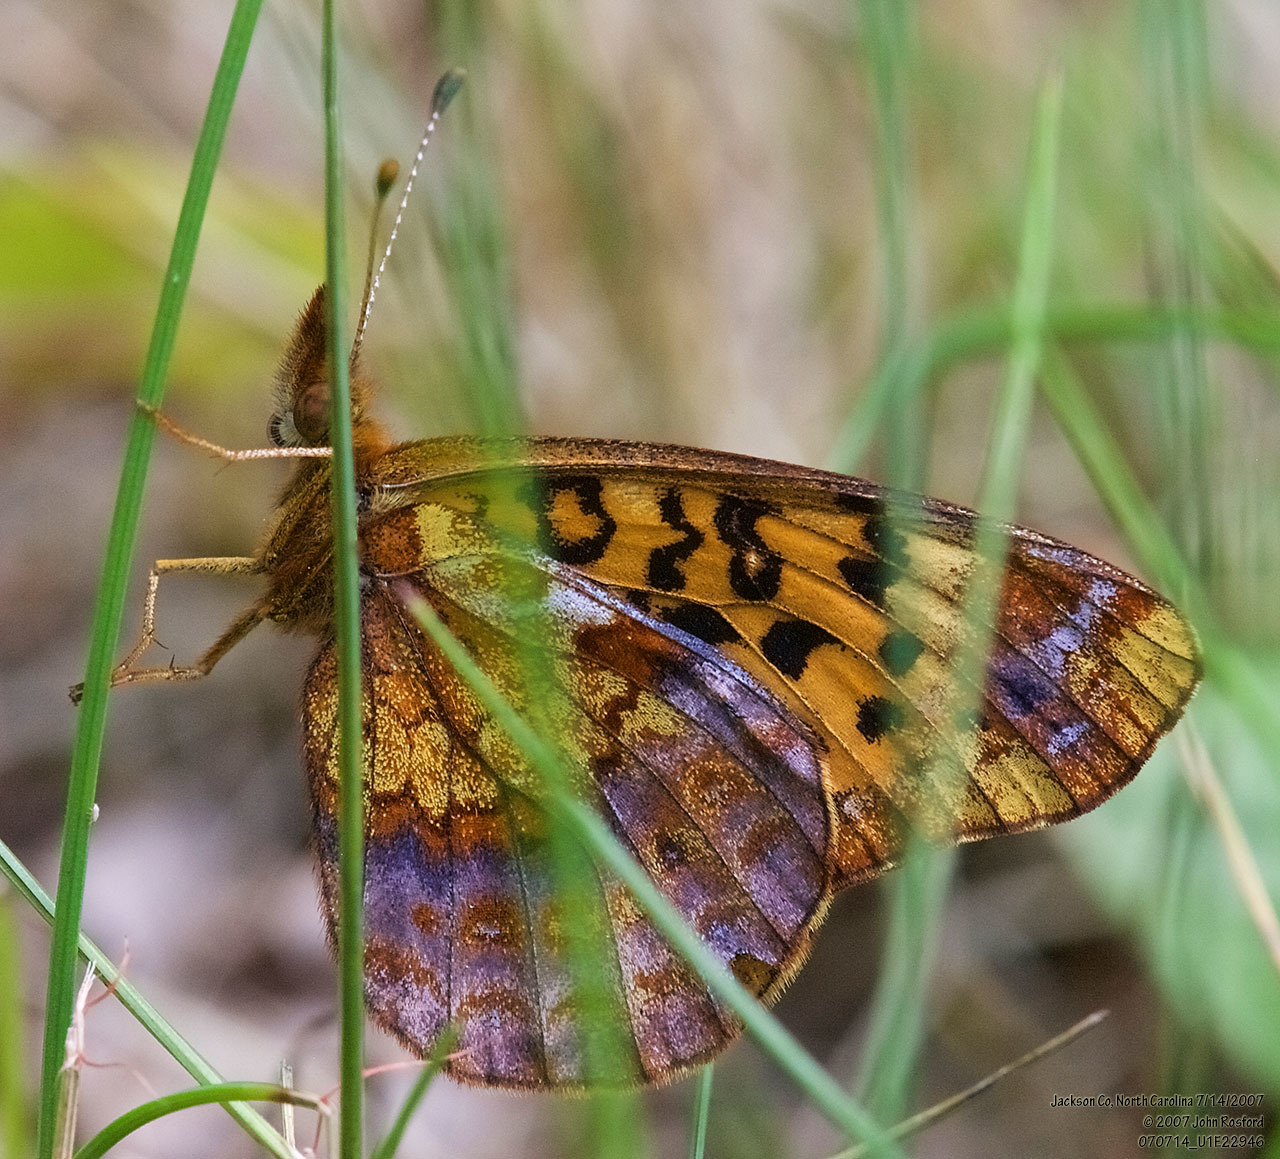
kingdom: Animalia
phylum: Arthropoda
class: Insecta
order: Lepidoptera
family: Nymphalidae
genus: Clossiana
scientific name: Clossiana toddi
